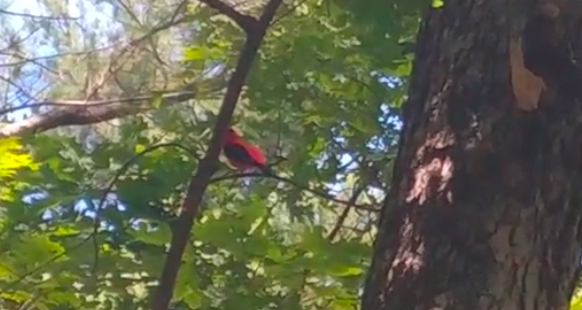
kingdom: Animalia
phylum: Chordata
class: Aves
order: Passeriformes
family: Cardinalidae
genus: Piranga
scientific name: Piranga olivacea
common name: Scarlet tanager
